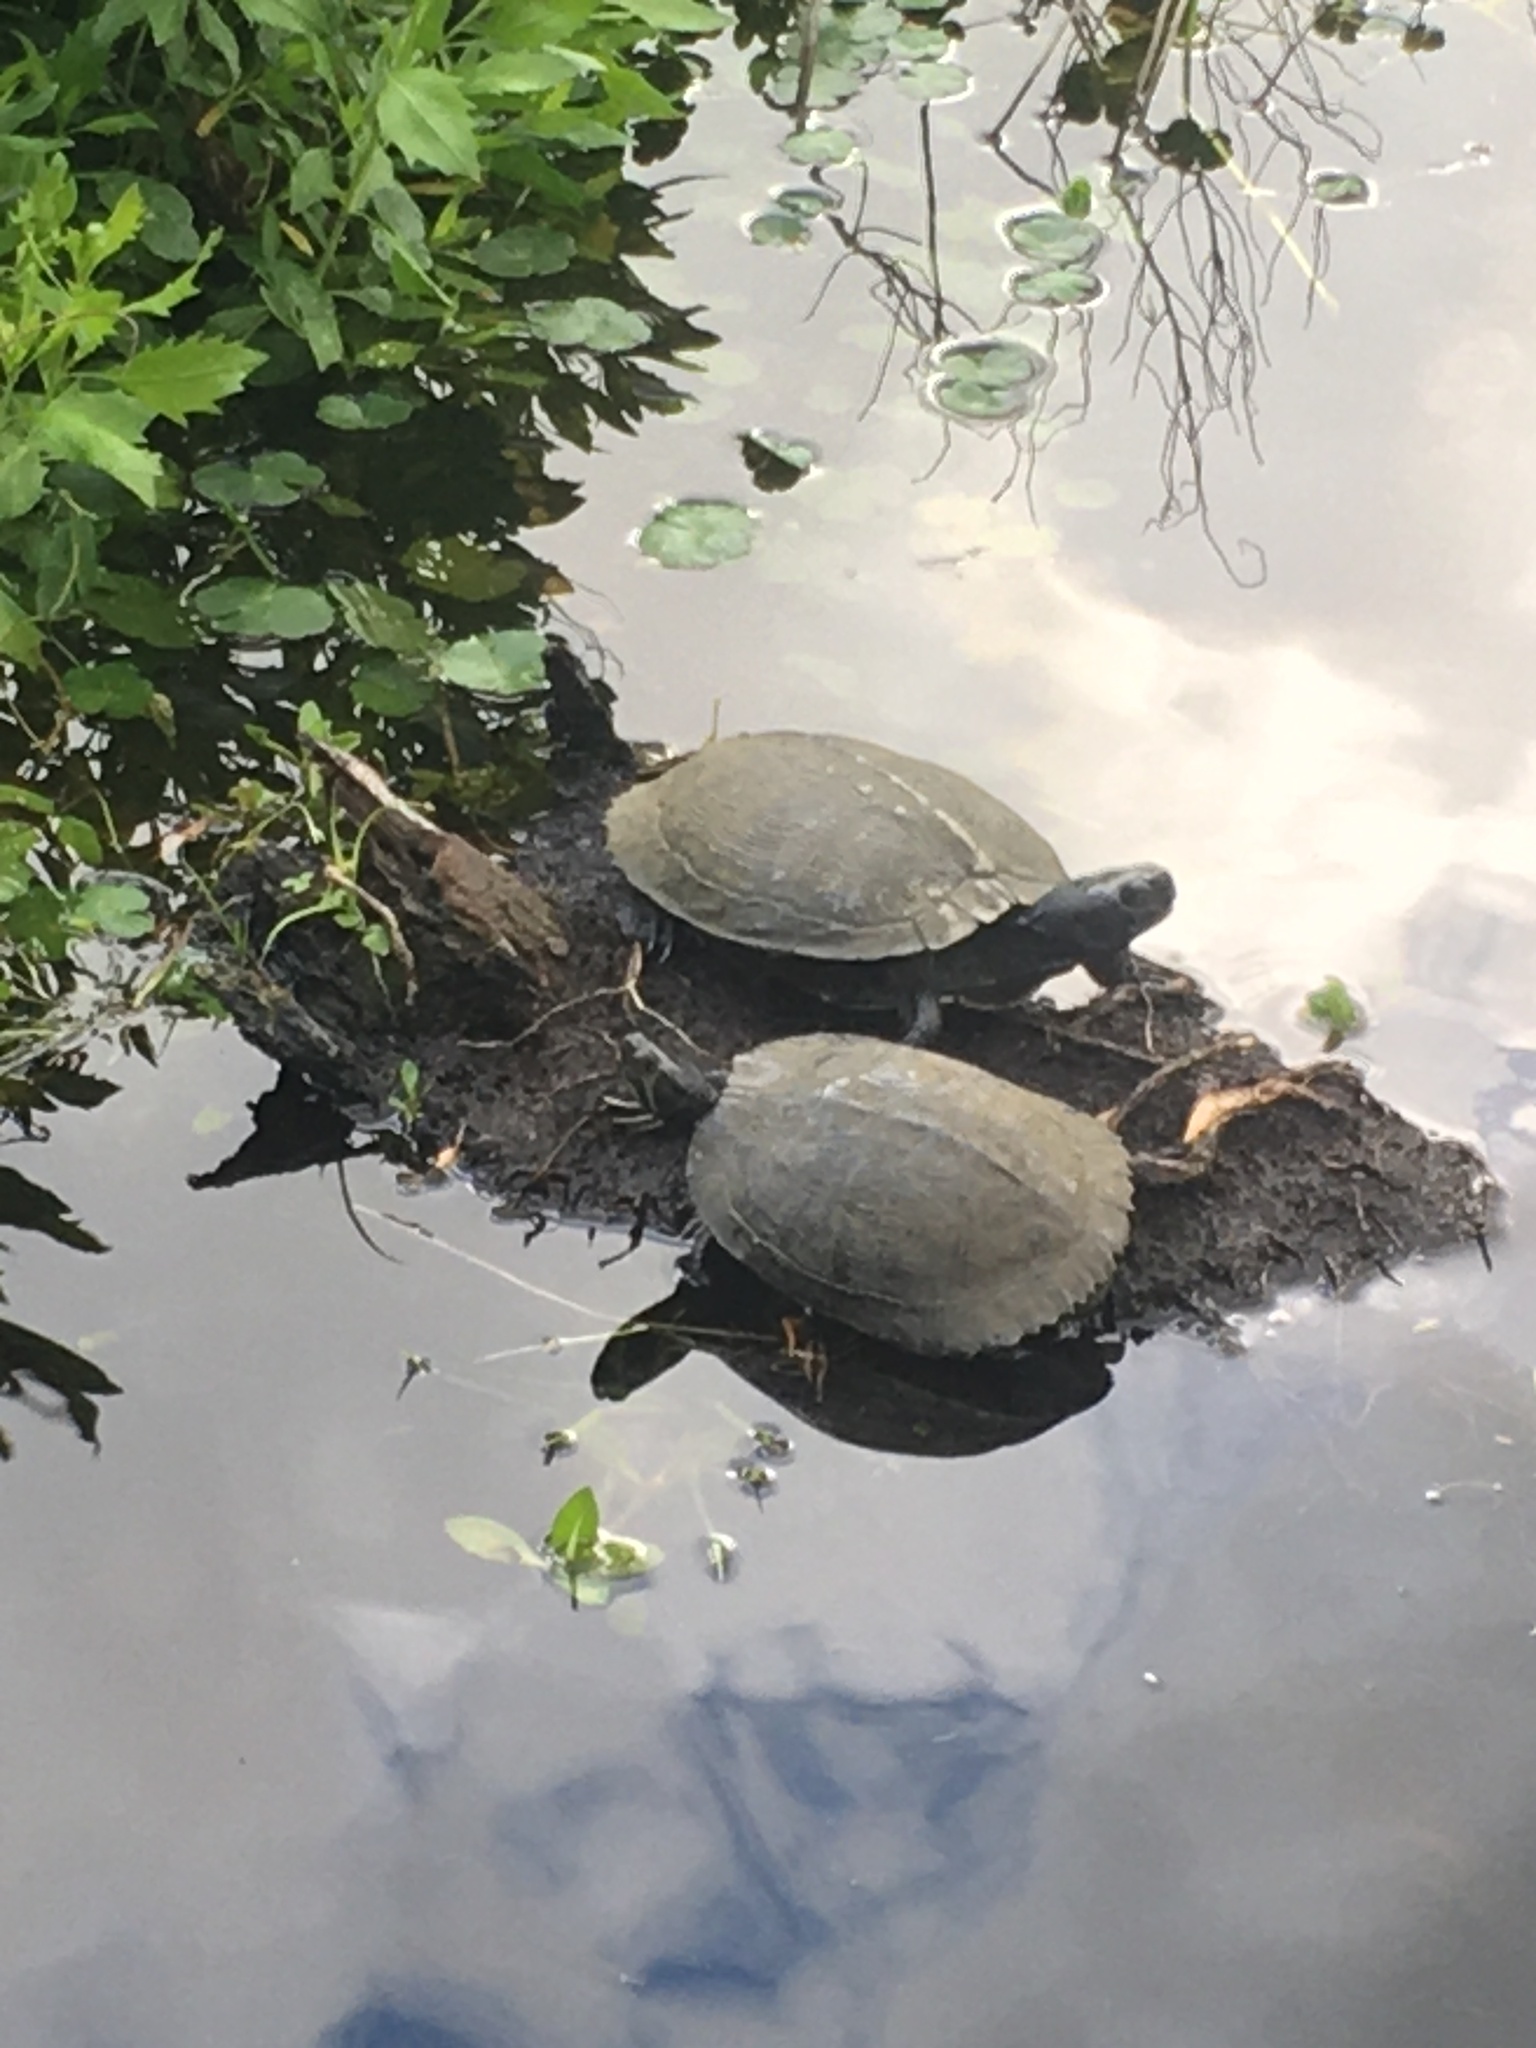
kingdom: Animalia
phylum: Chordata
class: Testudines
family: Emydidae
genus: Trachemys
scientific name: Trachemys scripta
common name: Slider
